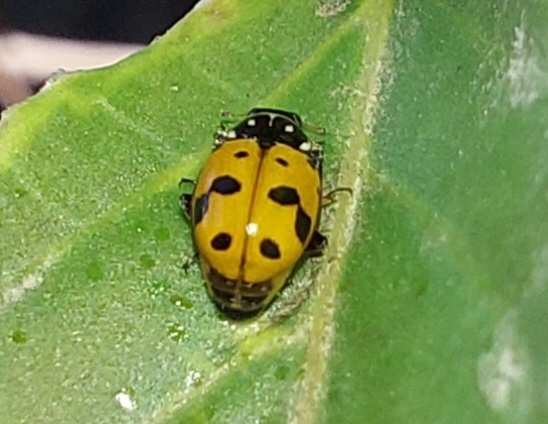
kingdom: Animalia
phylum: Arthropoda
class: Insecta
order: Coleoptera
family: Coccinellidae
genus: Hippodamia
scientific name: Hippodamia variegata
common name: Ladybird beetle
